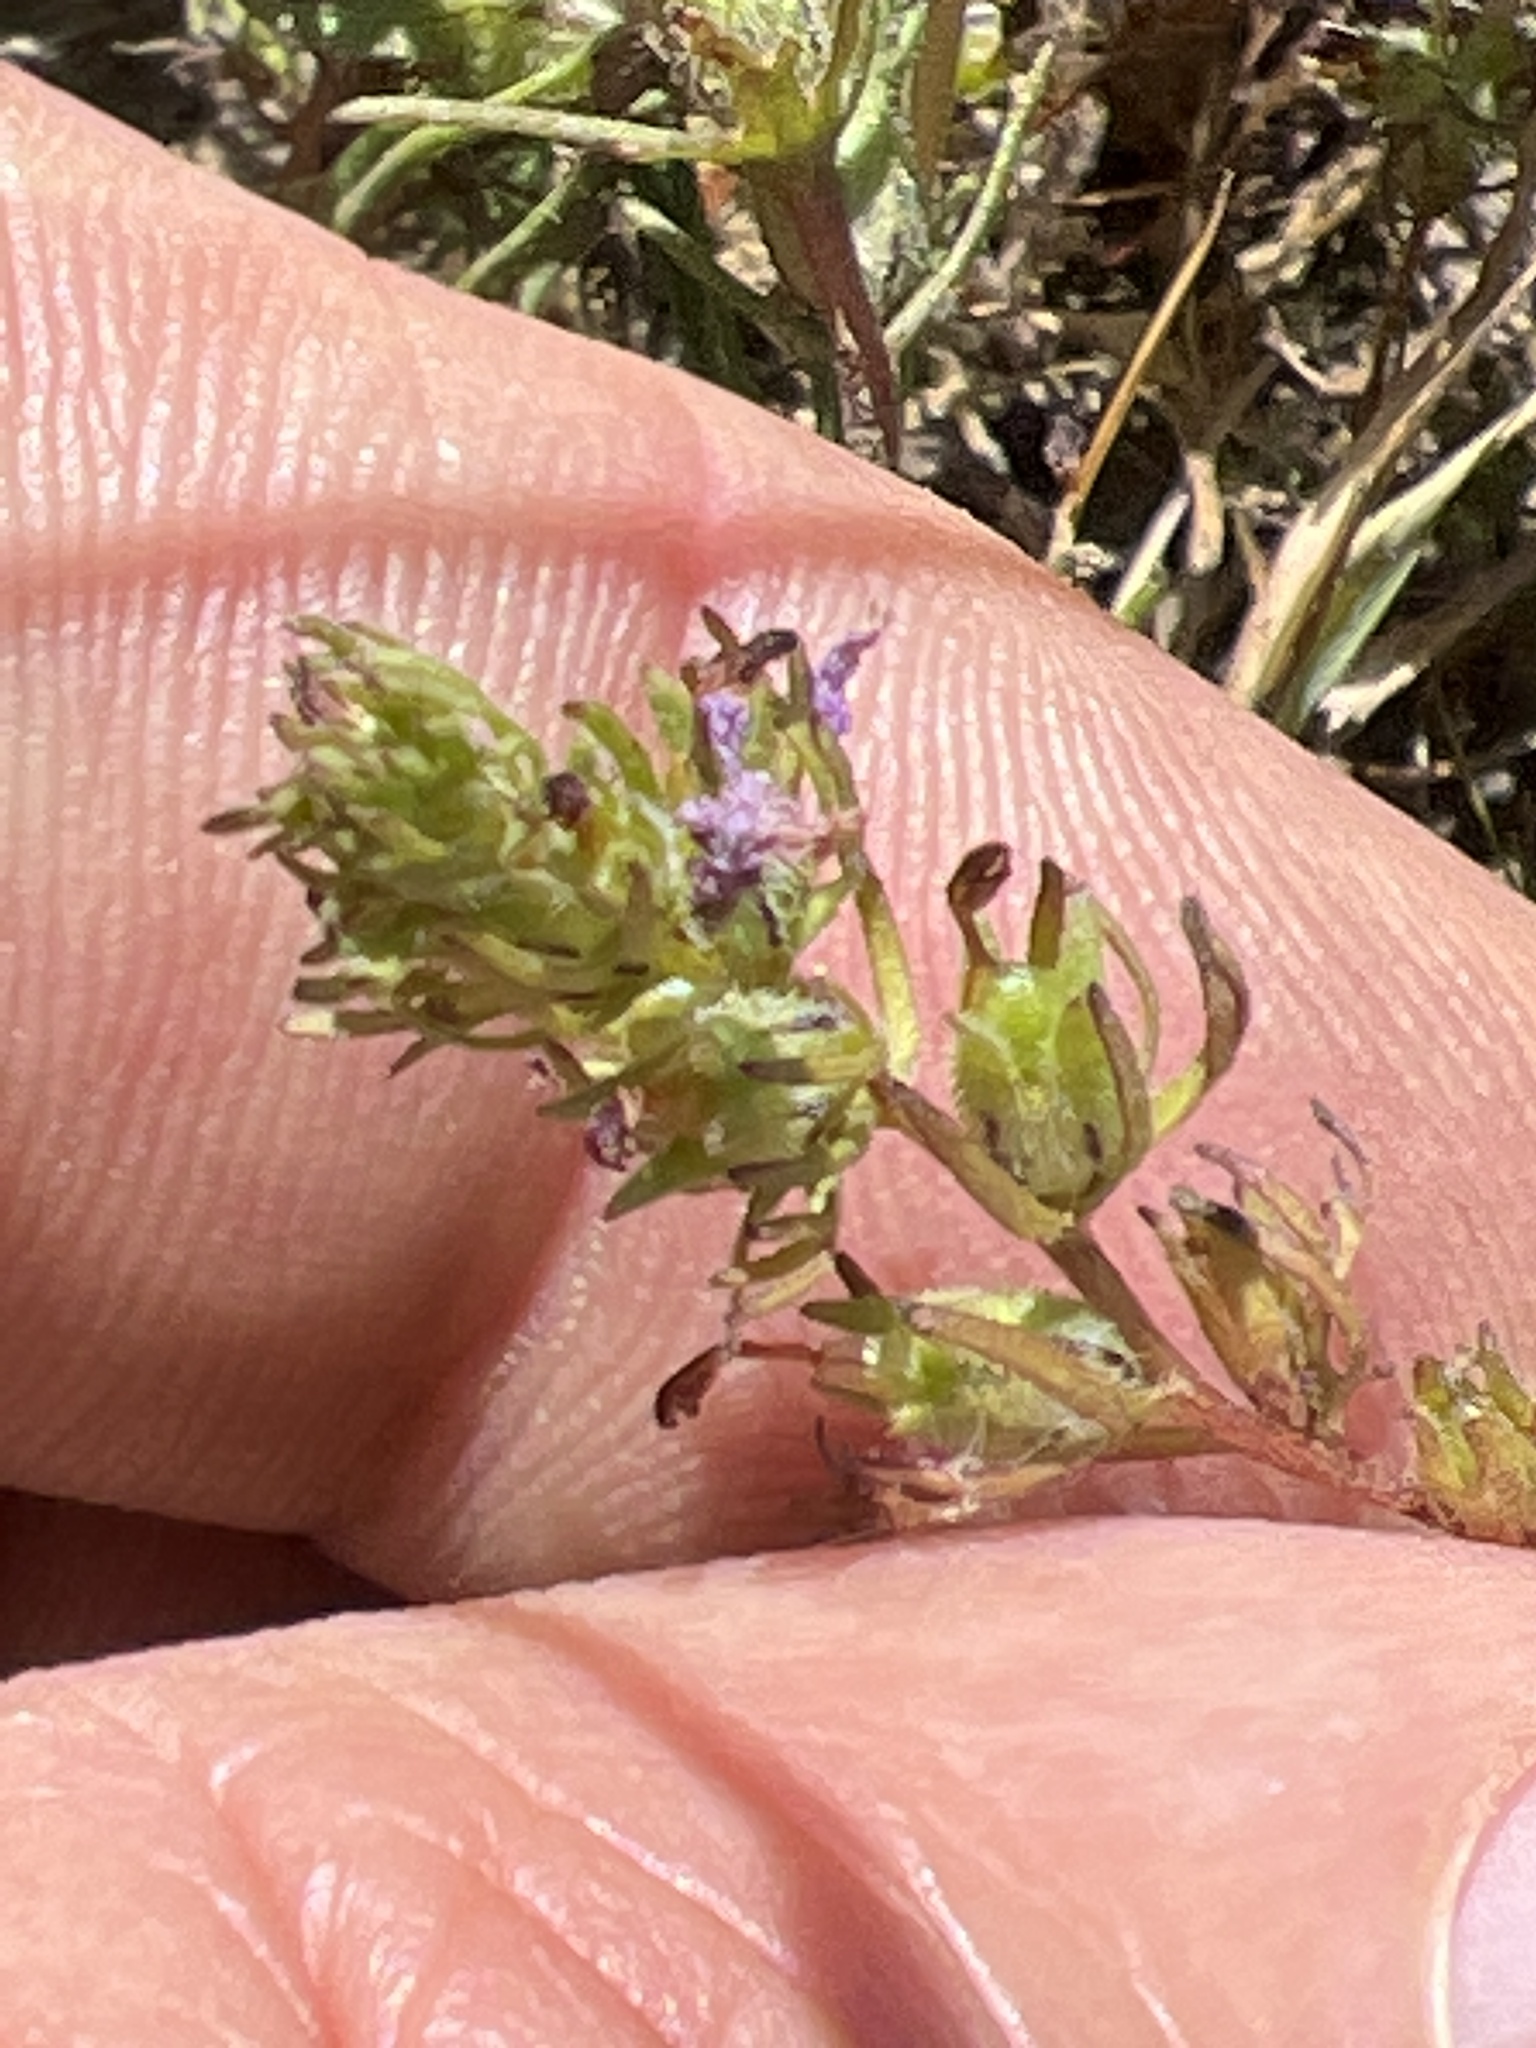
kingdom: Plantae
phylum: Tracheophyta
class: Magnoliopsida
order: Lamiales
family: Orobanchaceae
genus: Triphysaria
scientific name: Triphysaria pusilla
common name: Dwarf false owl-clover
